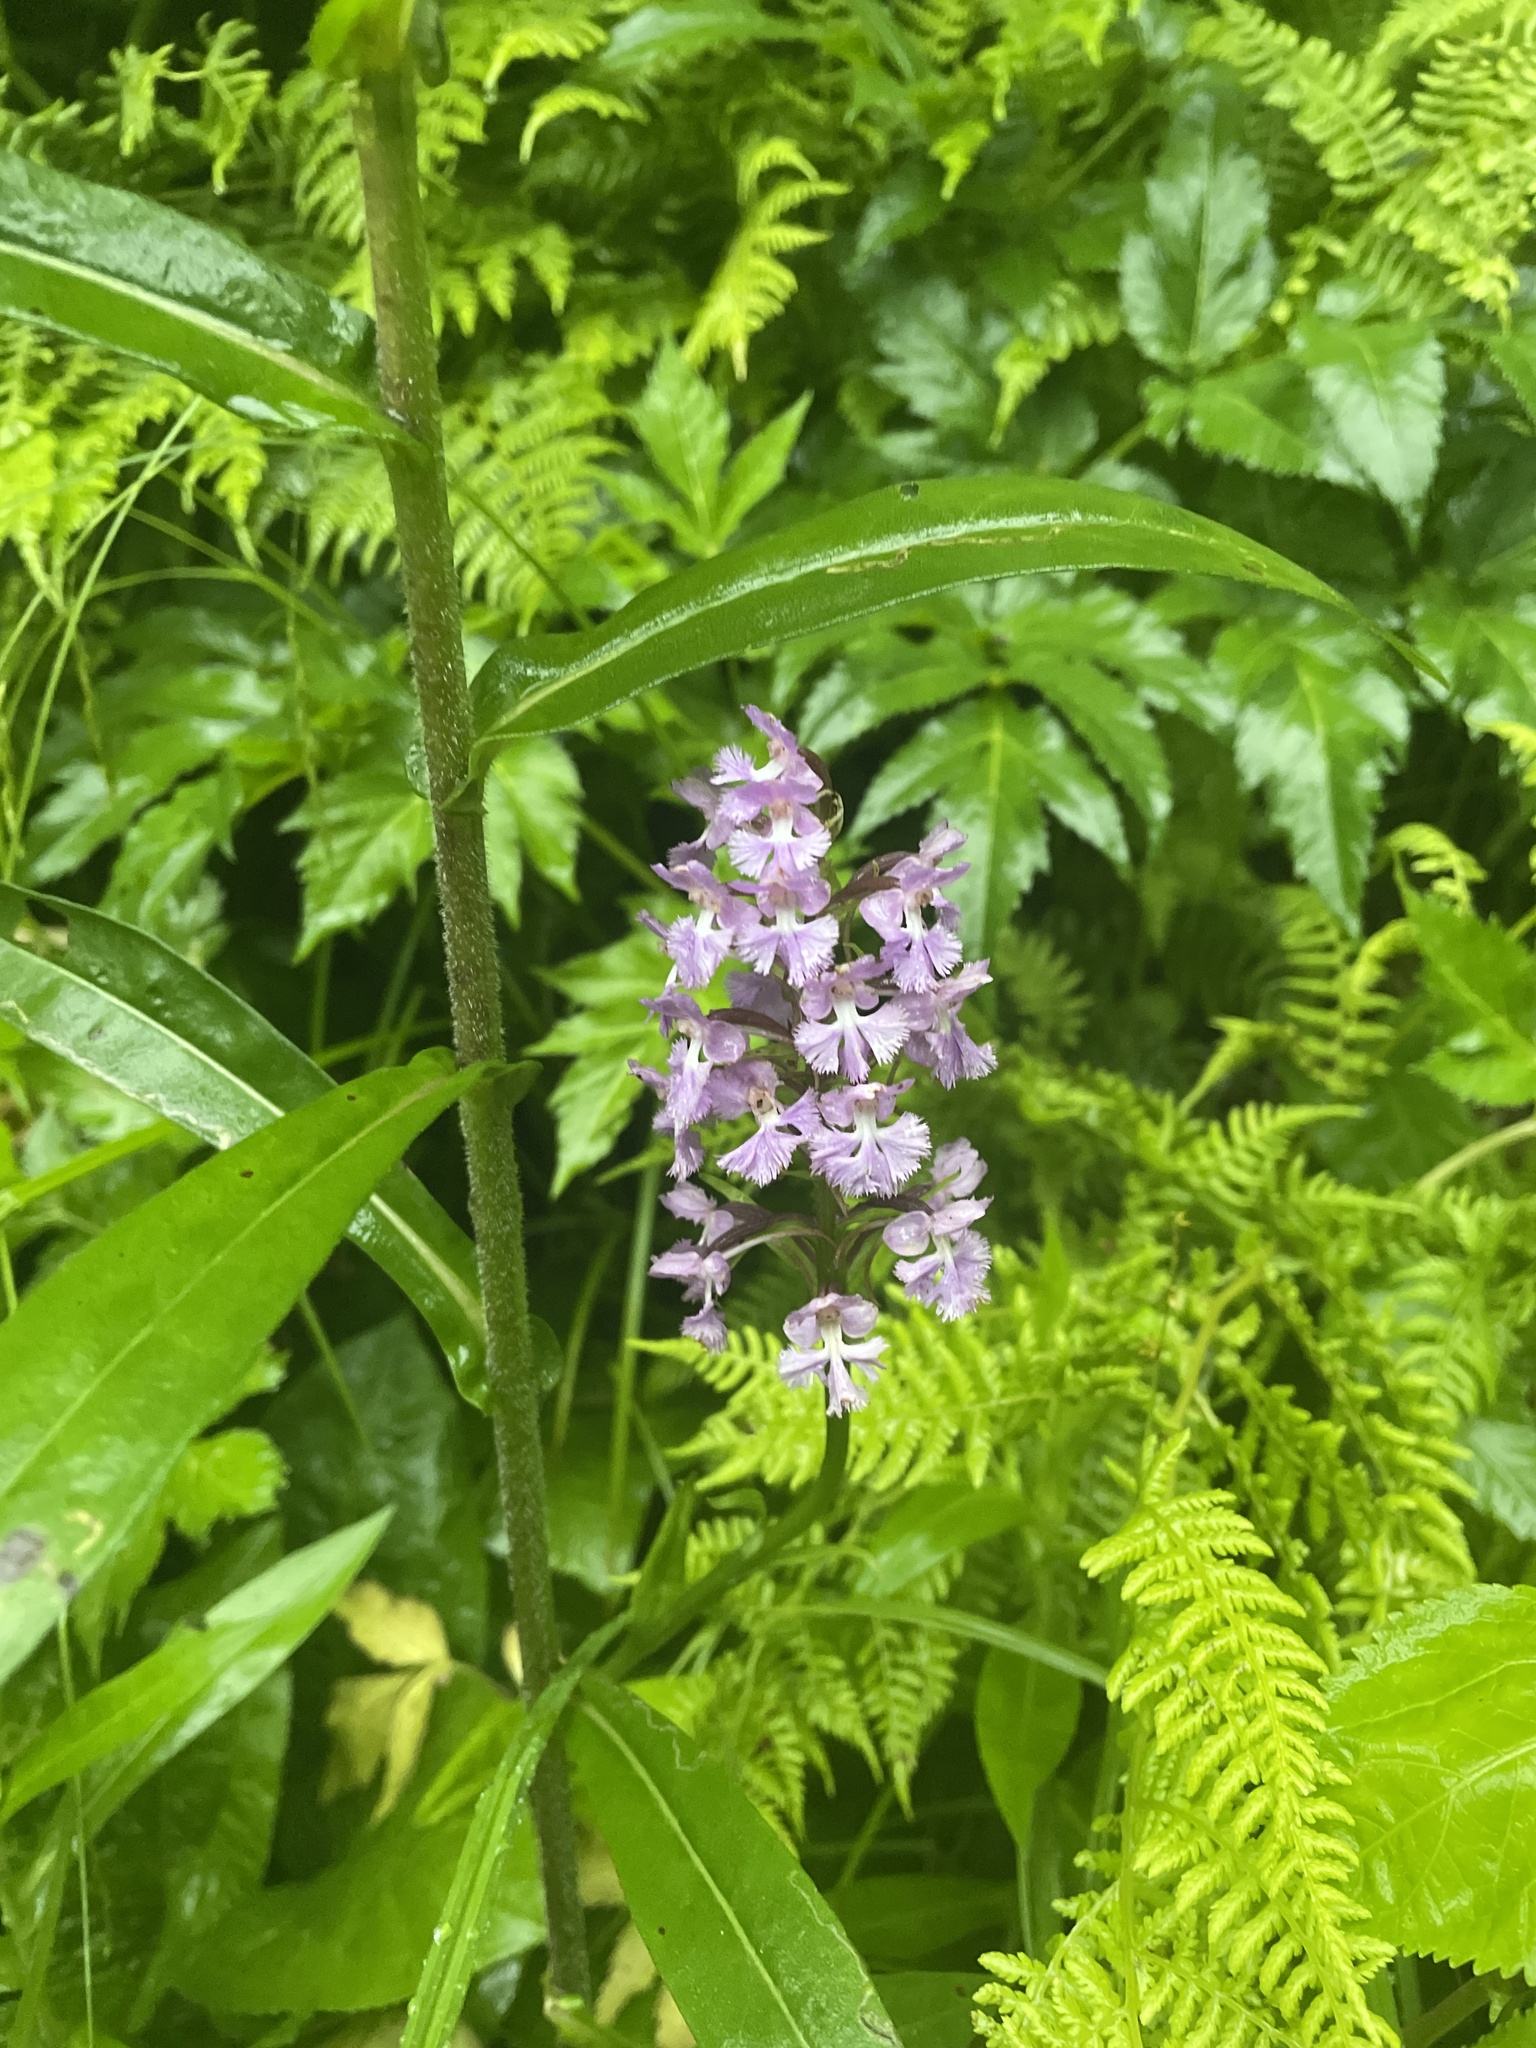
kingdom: Plantae
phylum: Tracheophyta
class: Liliopsida
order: Asparagales
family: Orchidaceae
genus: Platanthera
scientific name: Platanthera psycodes
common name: Lesser purple fringed orchid
